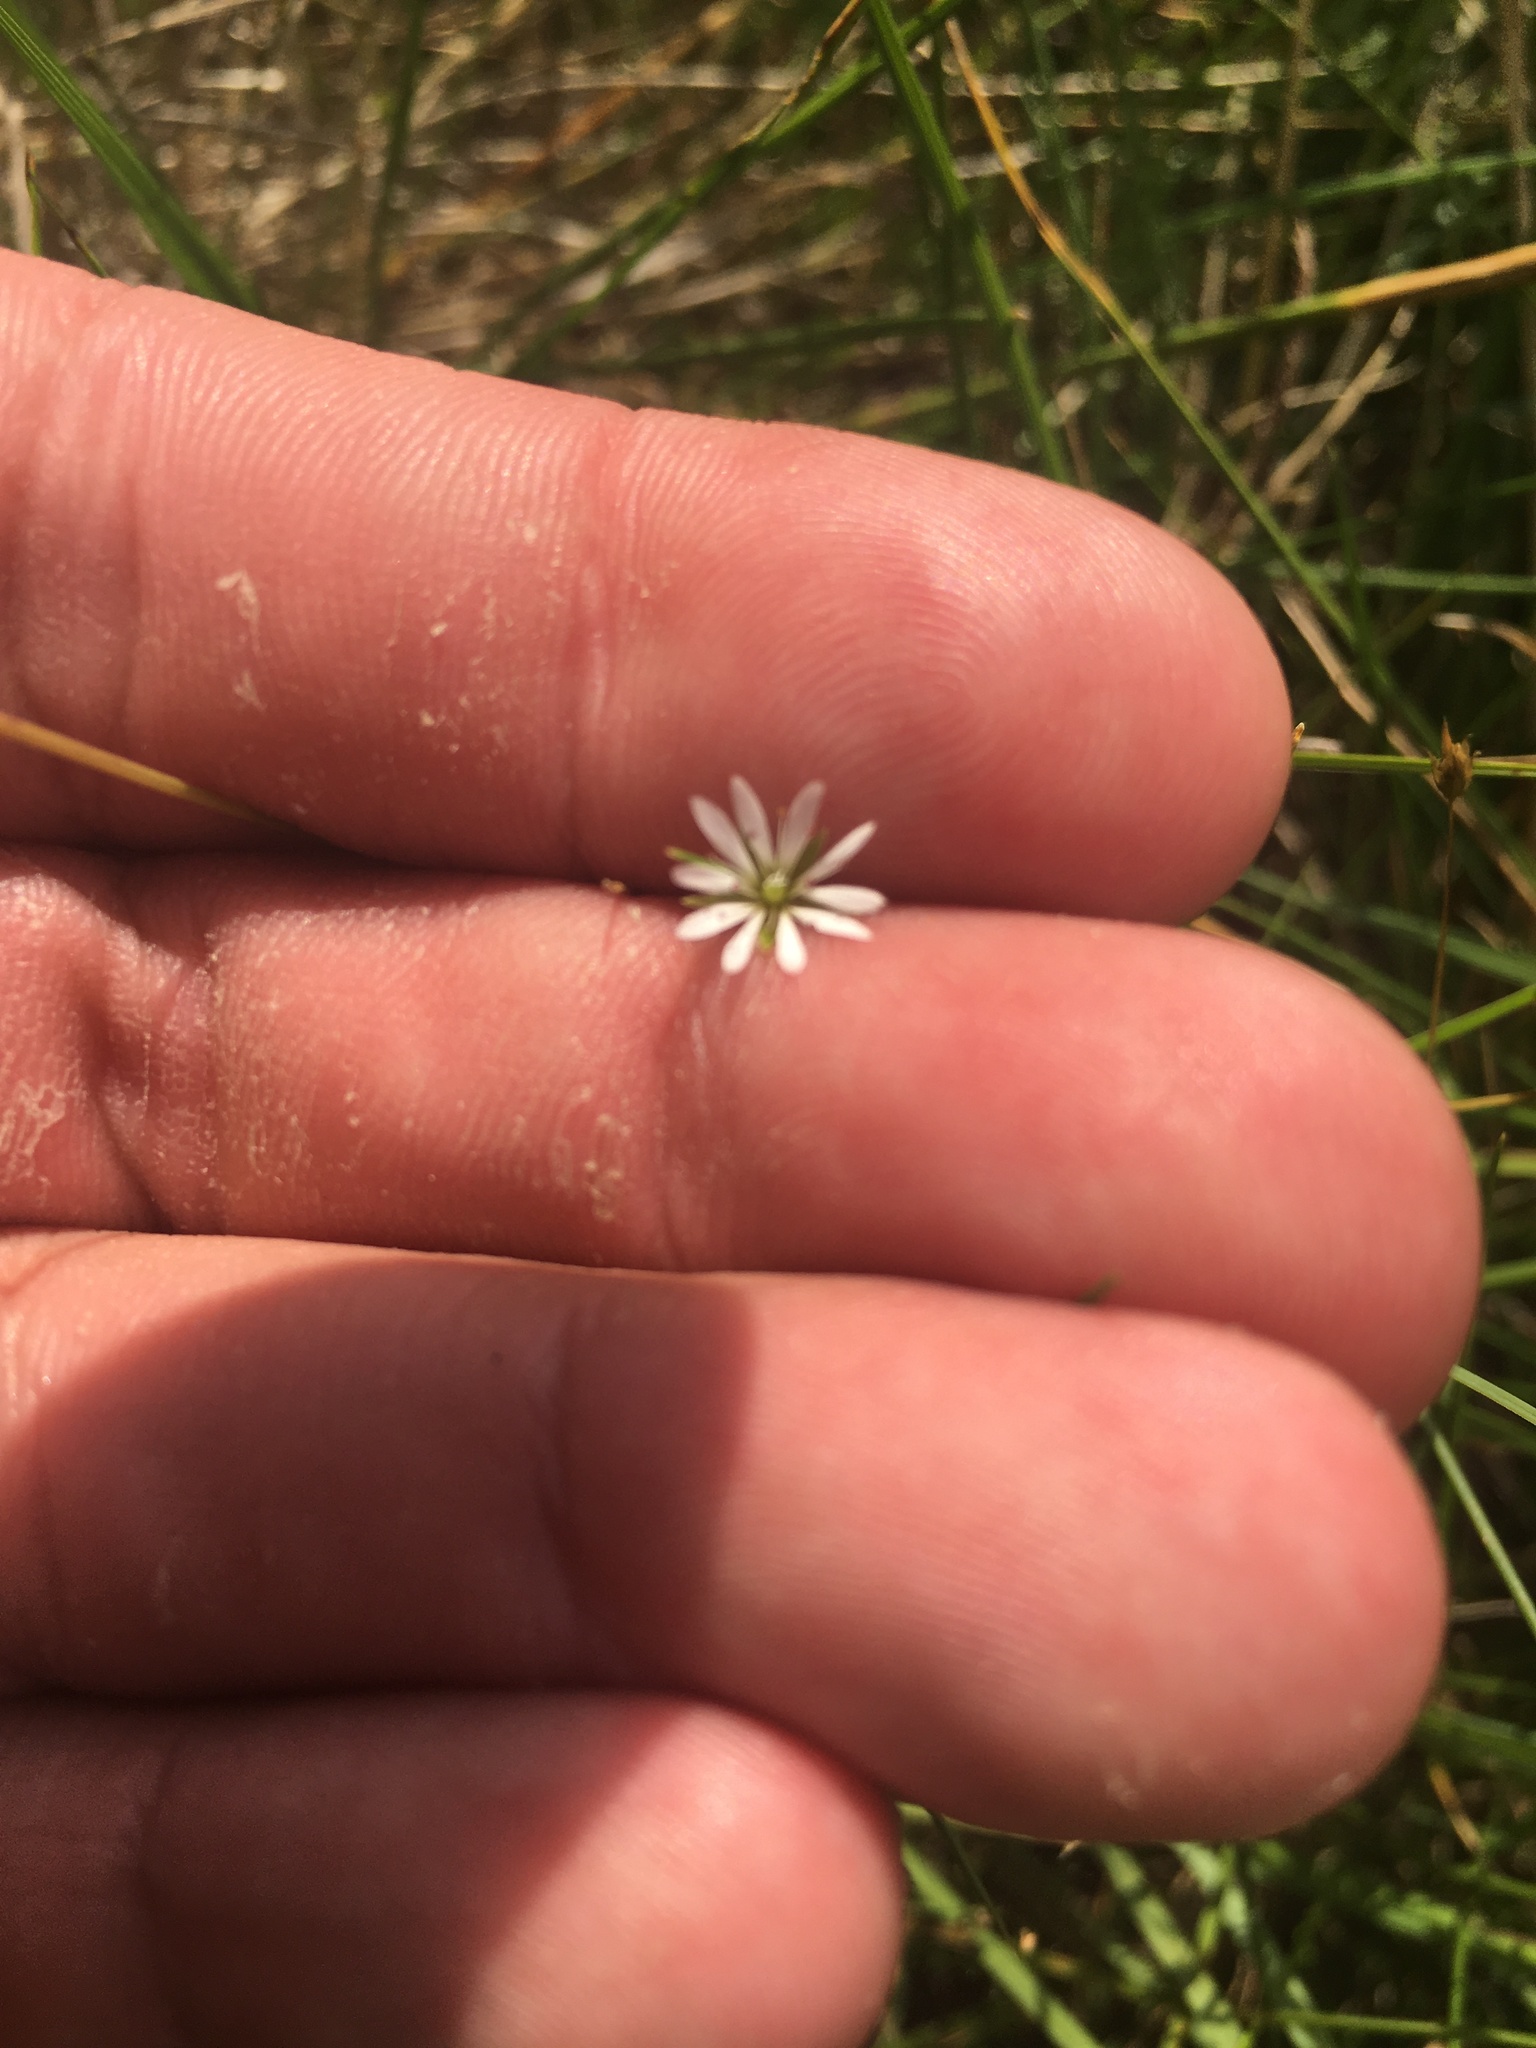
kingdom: Plantae
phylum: Tracheophyta
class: Magnoliopsida
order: Caryophyllales
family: Caryophyllaceae
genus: Stellaria
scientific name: Stellaria graminea
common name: Grass-like starwort
